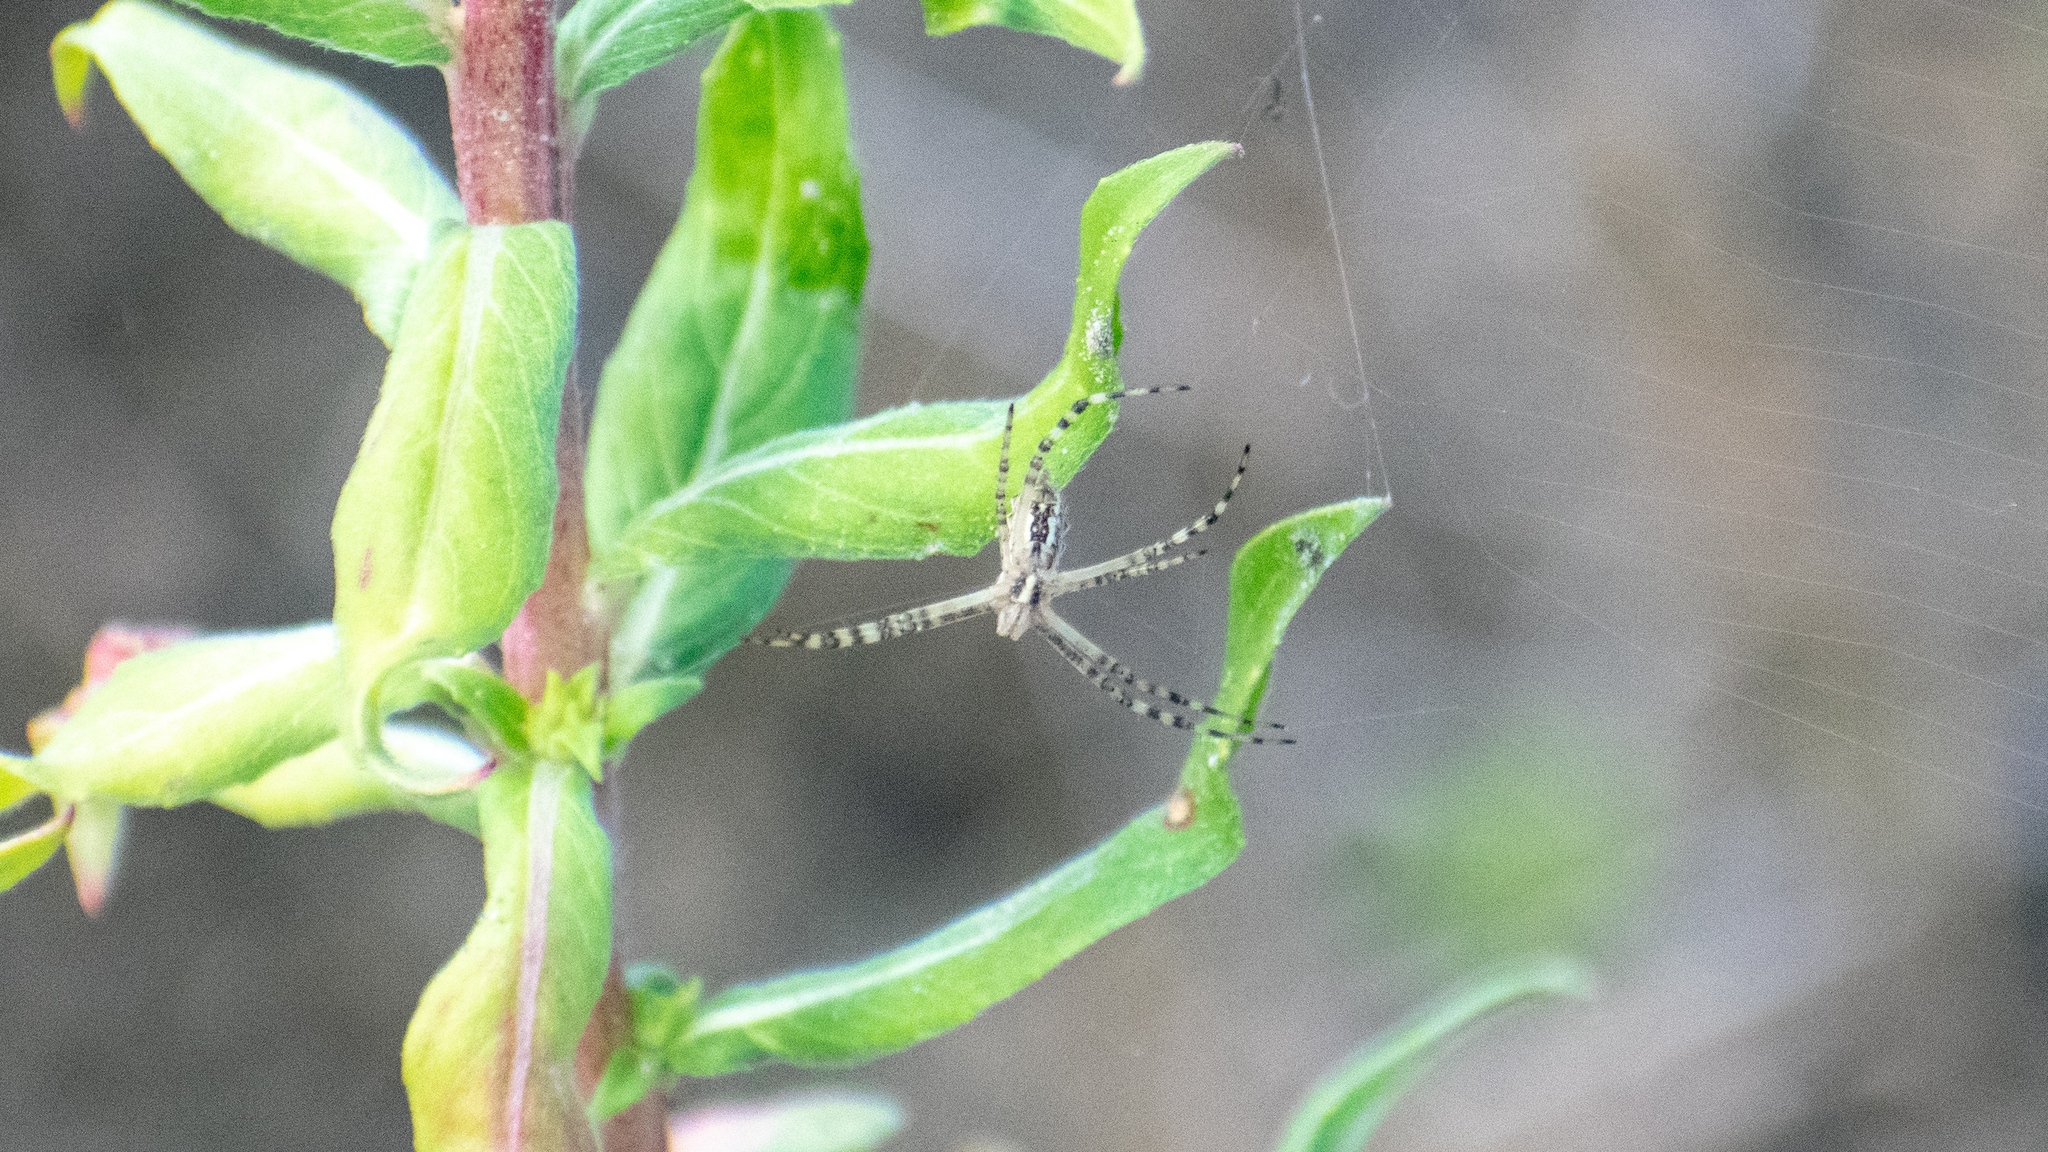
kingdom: Animalia
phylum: Arthropoda
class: Arachnida
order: Araneae
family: Araneidae
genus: Argiope
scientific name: Argiope bruennichi
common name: Wasp spider
